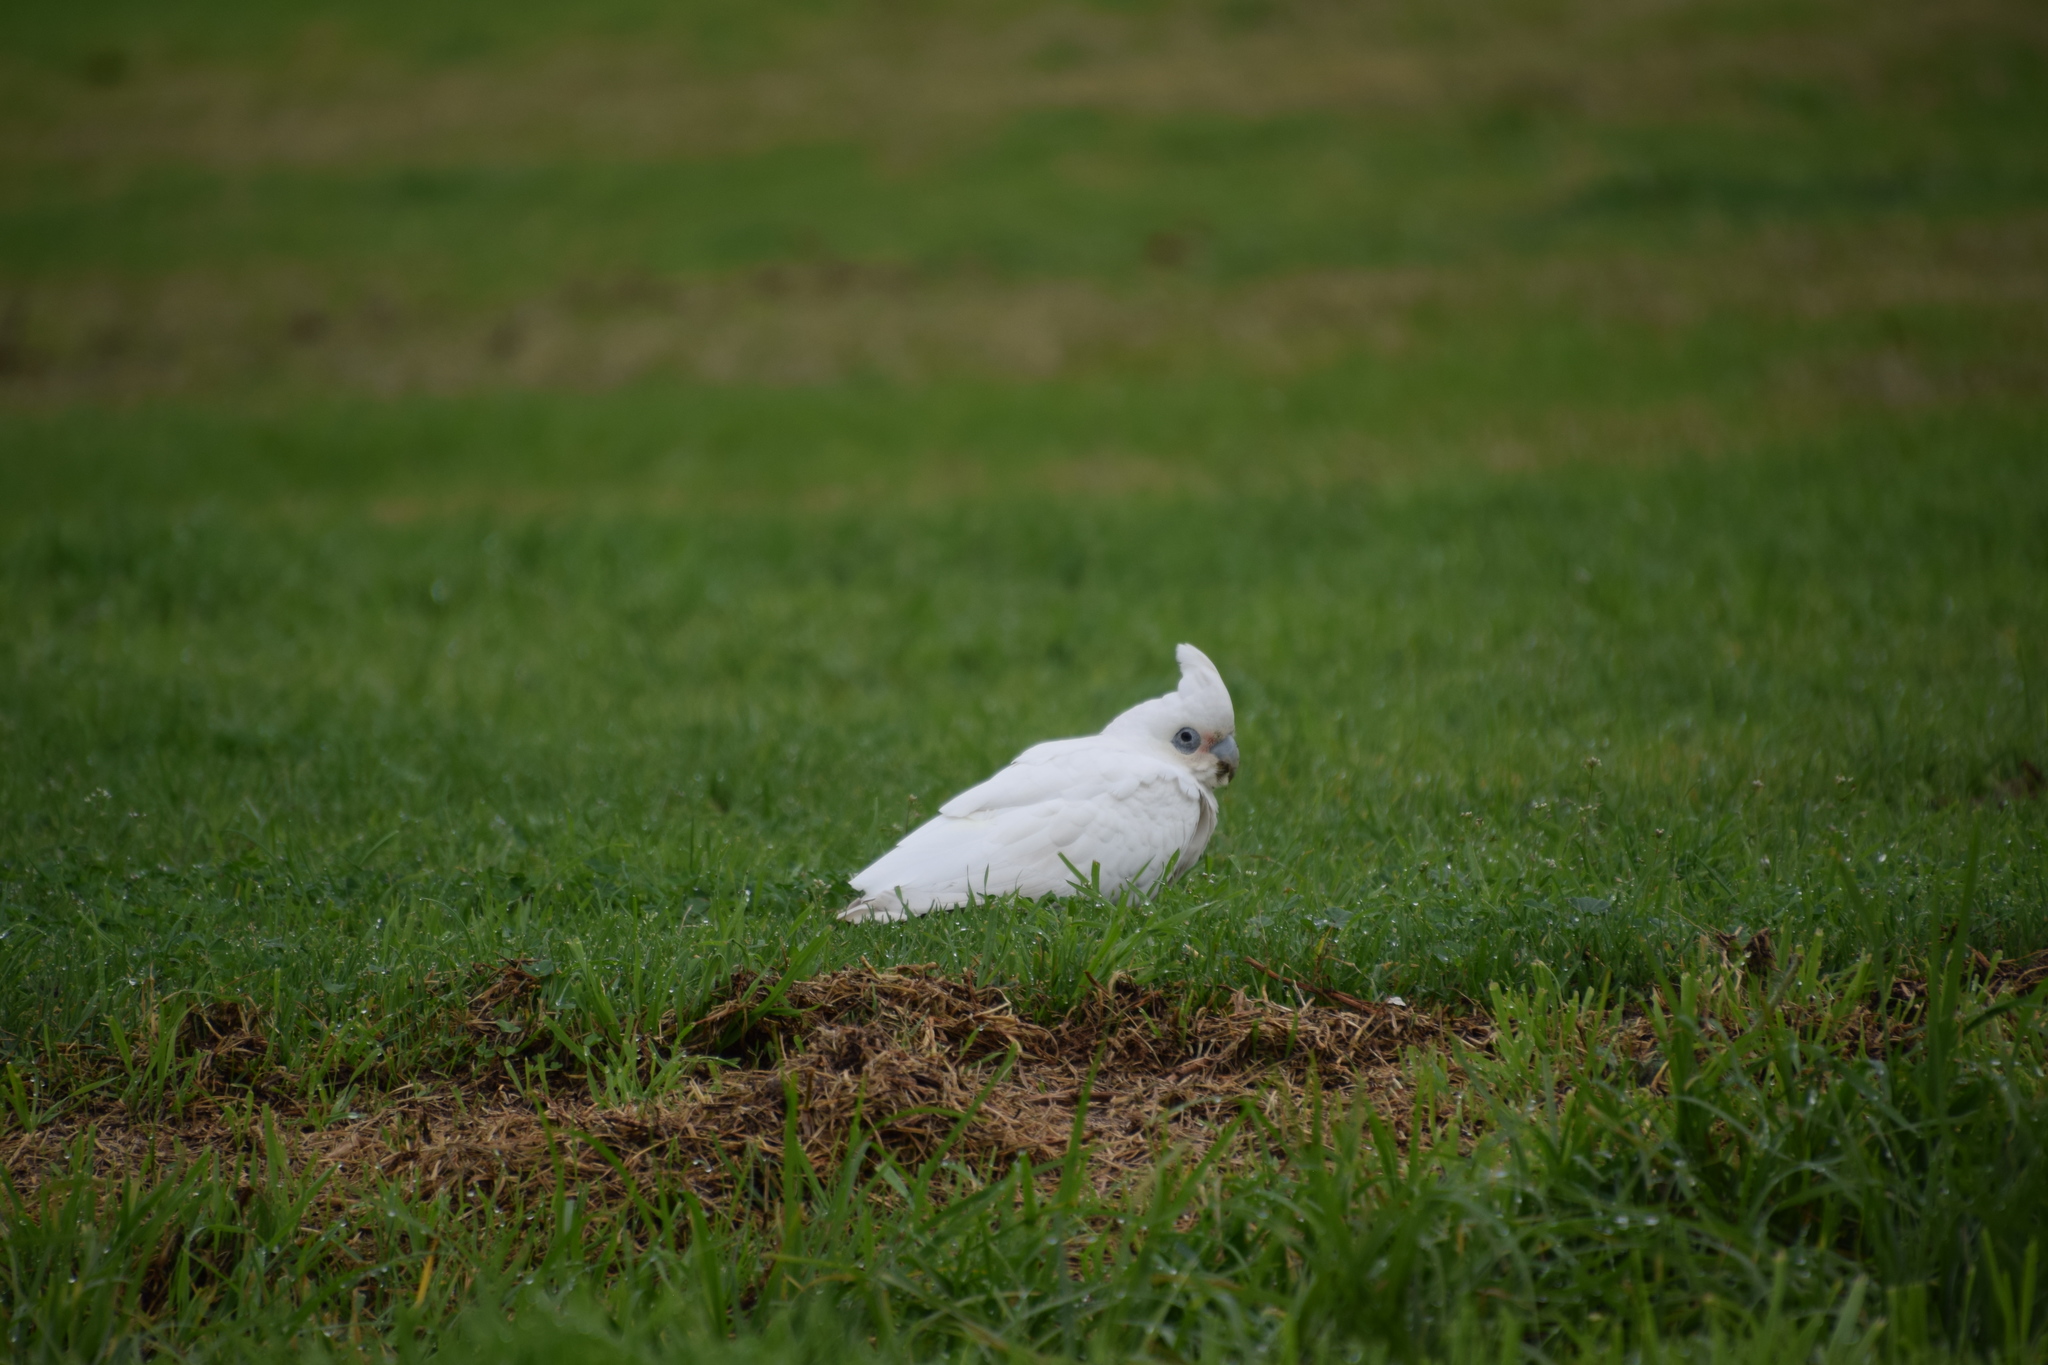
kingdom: Animalia
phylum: Chordata
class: Aves
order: Psittaciformes
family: Psittacidae
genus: Cacatua
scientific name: Cacatua sanguinea
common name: Little corella
